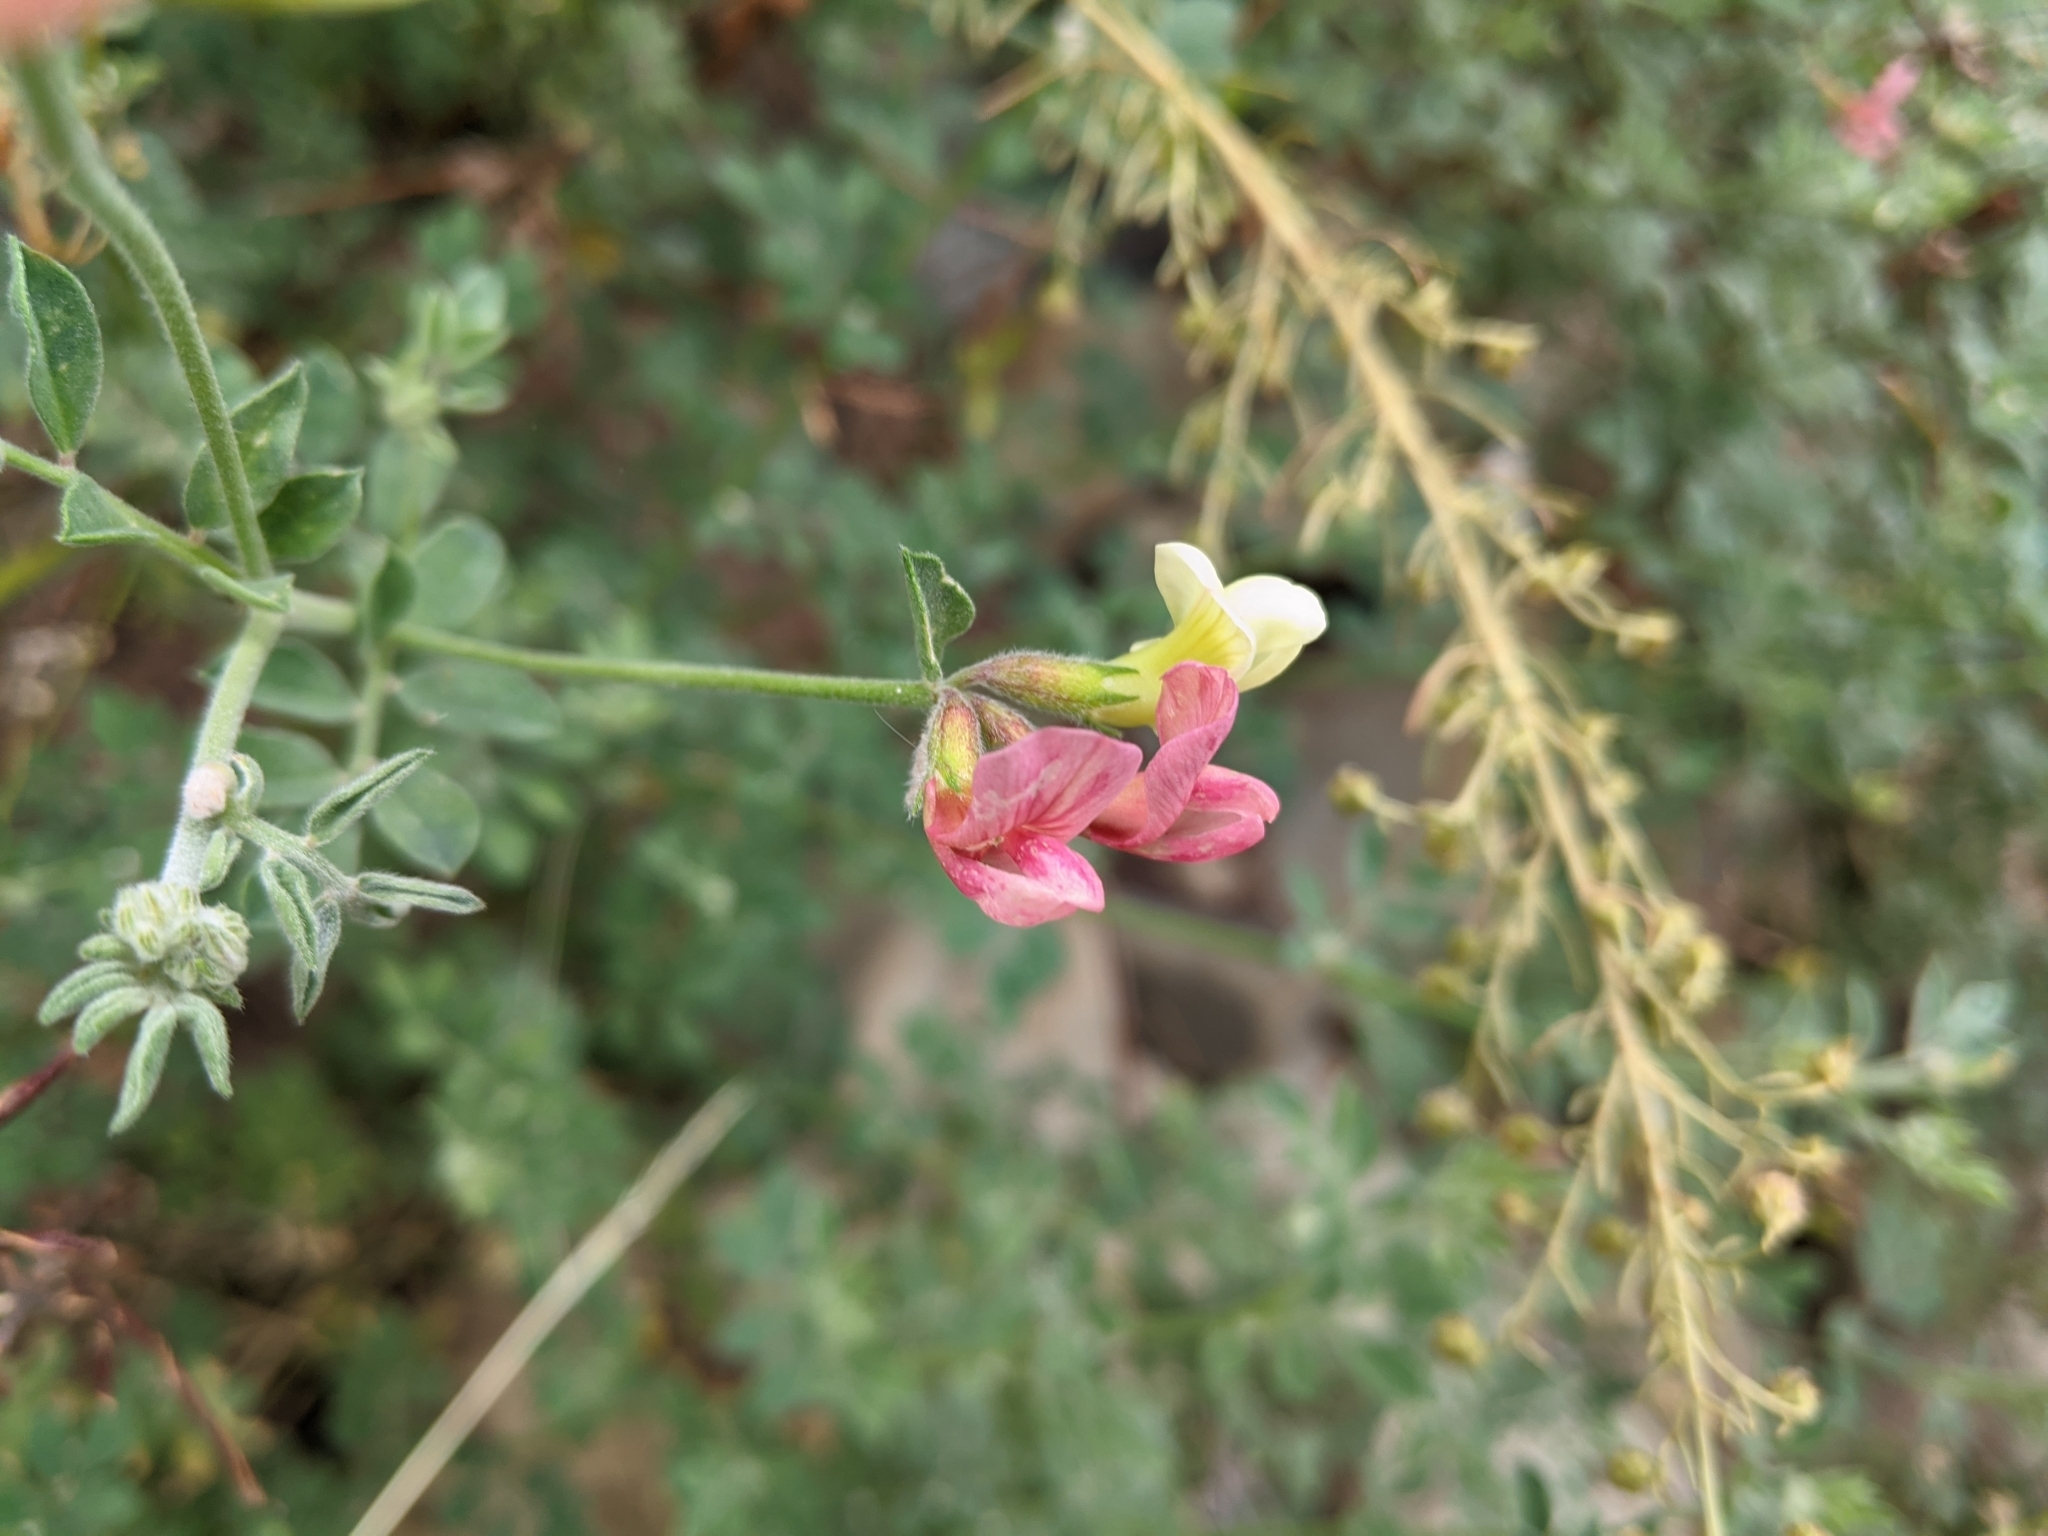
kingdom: Plantae
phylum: Tracheophyta
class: Magnoliopsida
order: Fabales
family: Fabaceae
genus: Acmispon
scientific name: Acmispon grandiflorus
